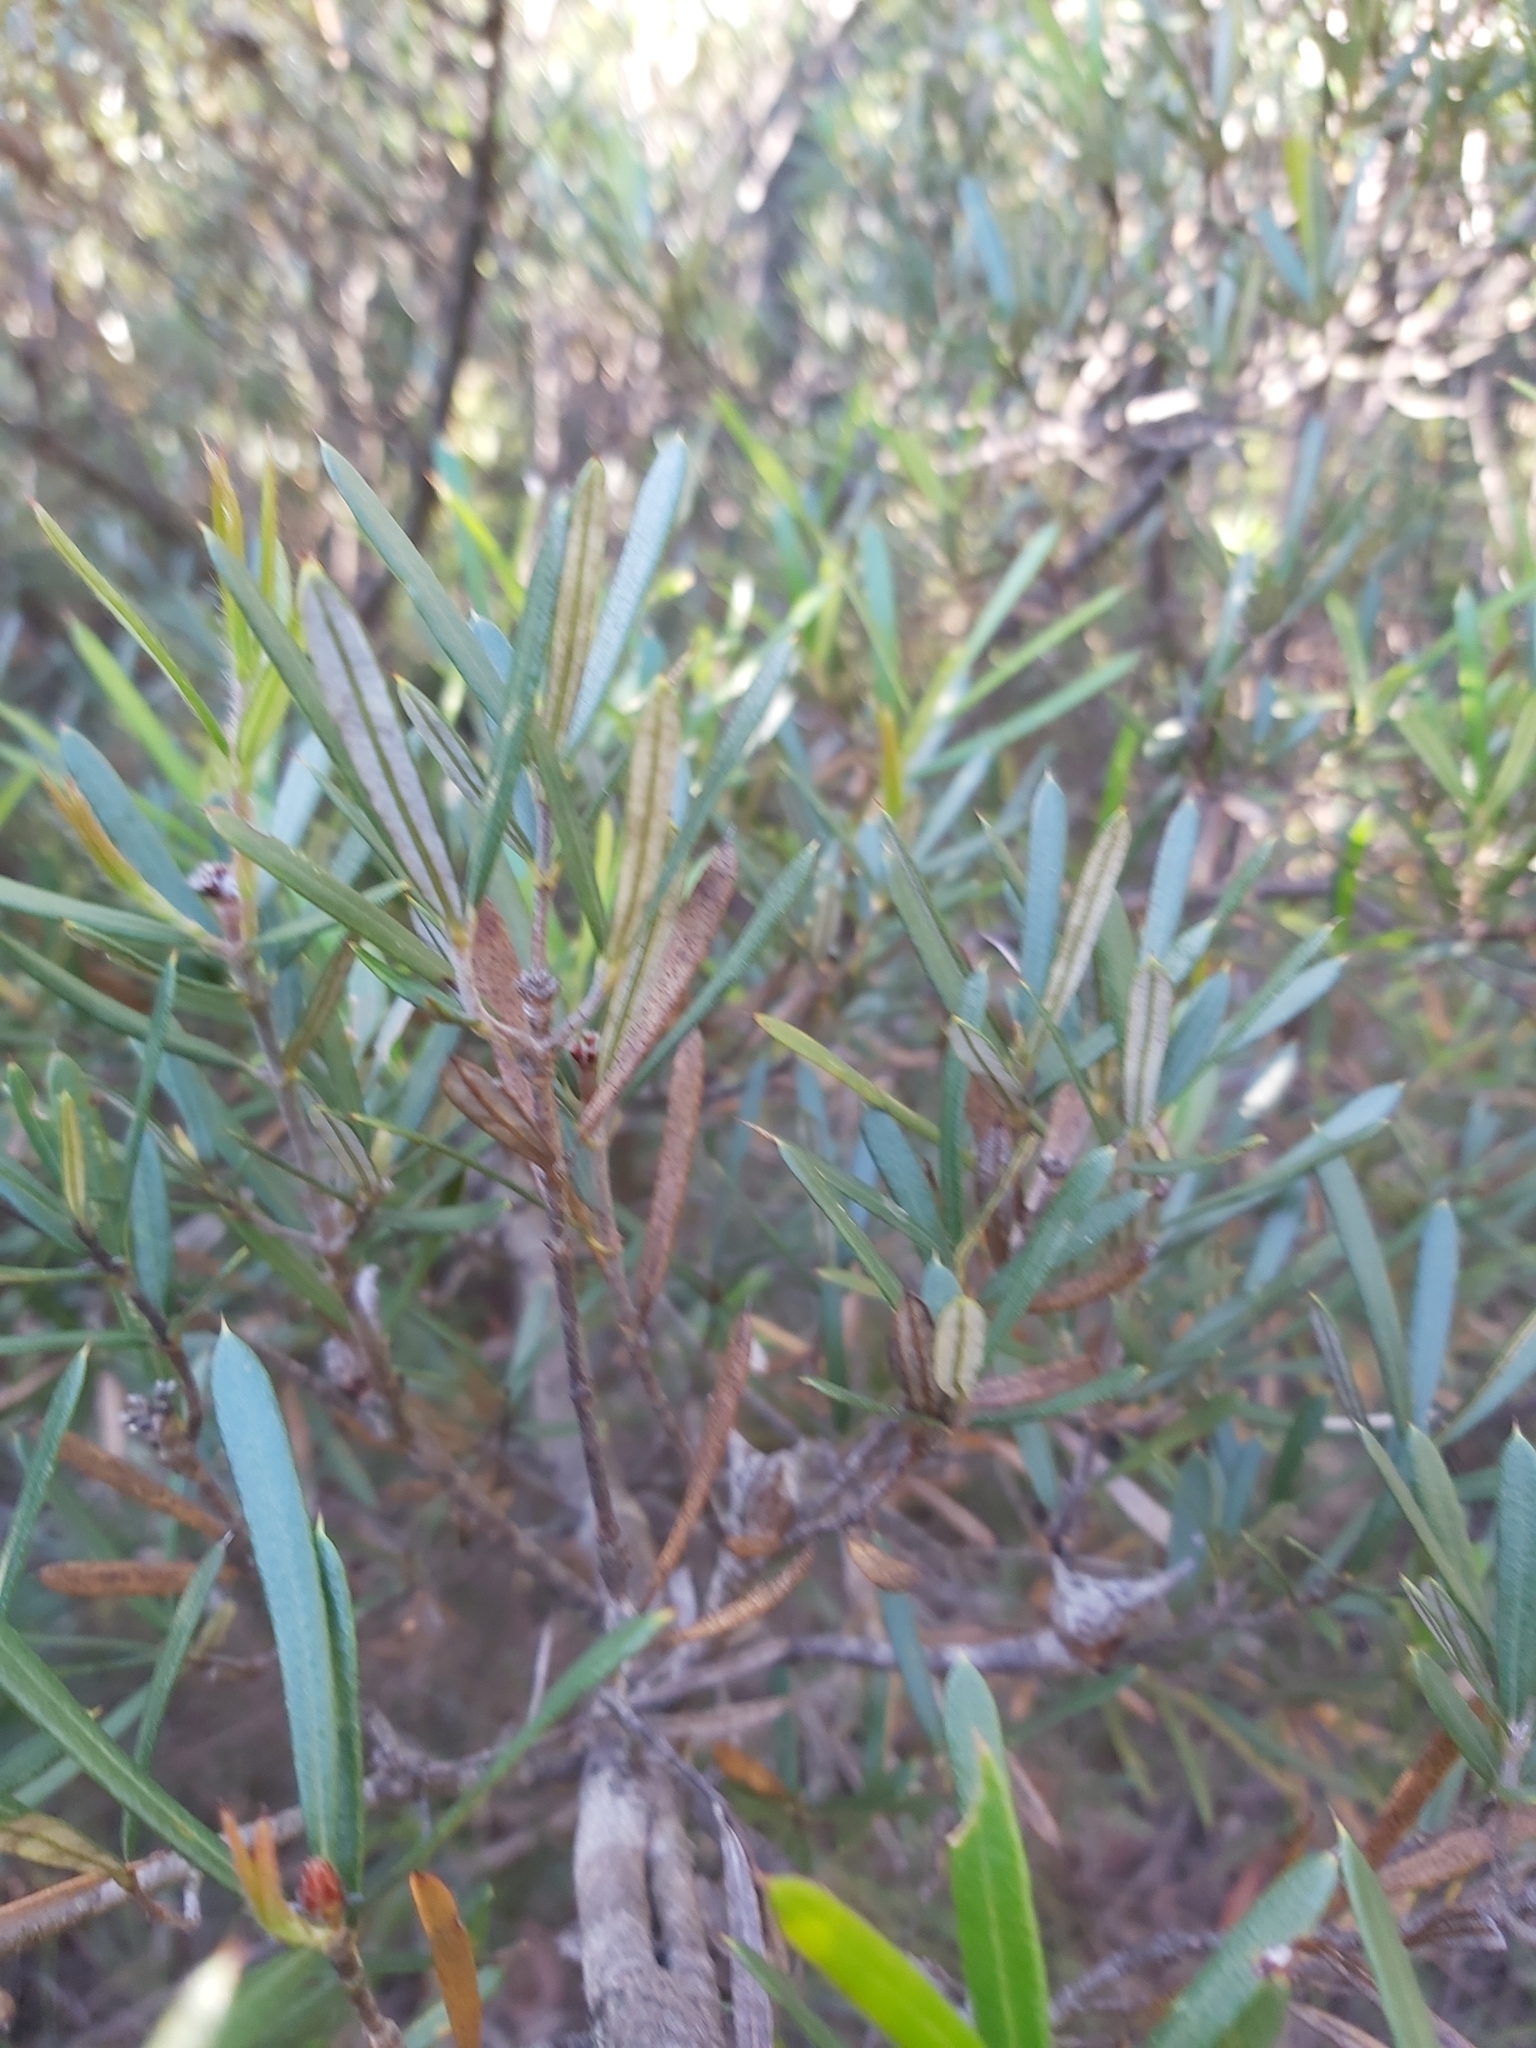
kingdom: Plantae
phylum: Tracheophyta
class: Magnoliopsida
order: Proteales
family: Proteaceae
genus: Lambertia
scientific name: Lambertia formosa
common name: Mountain-devil
